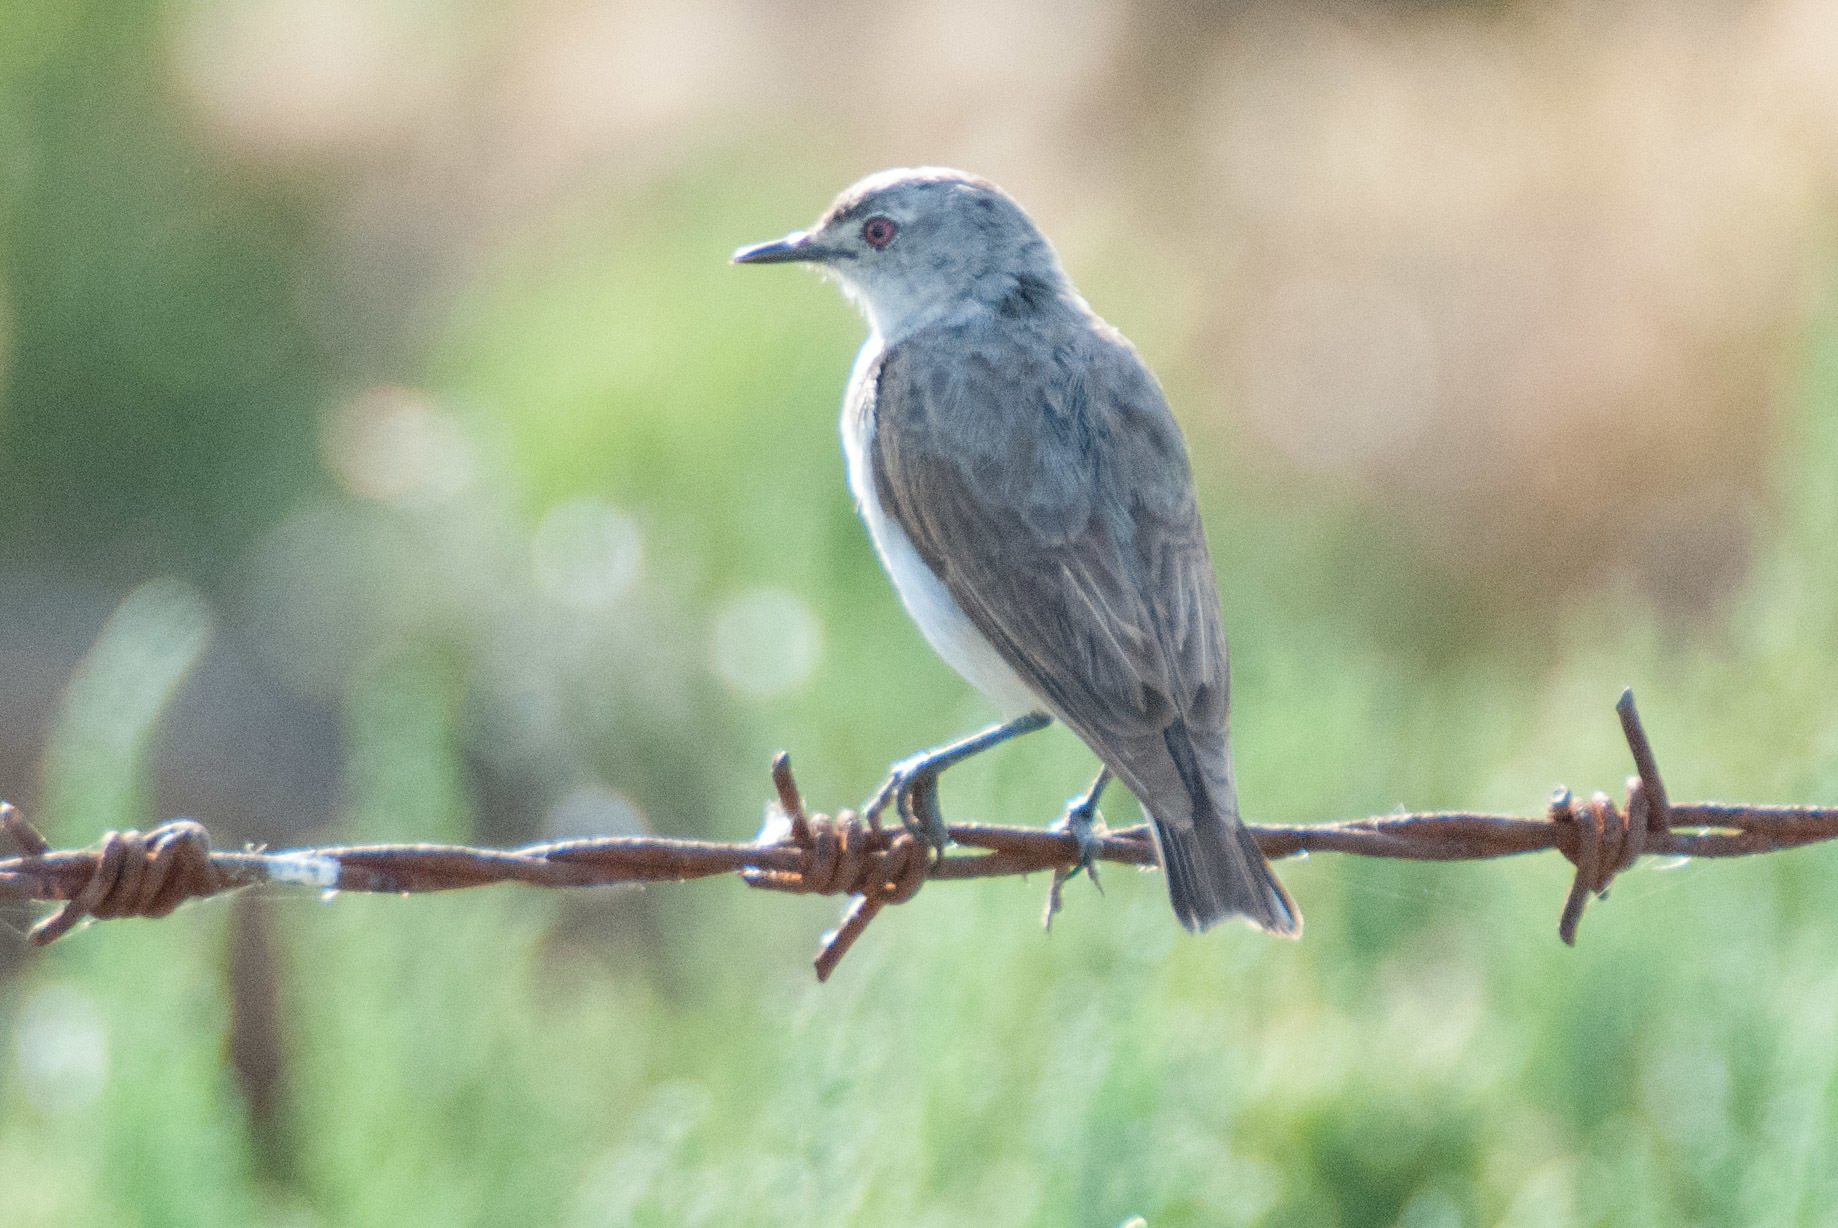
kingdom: Animalia
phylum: Chordata
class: Aves
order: Passeriformes
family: Meliphagidae
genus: Epthianura
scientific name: Epthianura albifrons
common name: White-fronted chat
